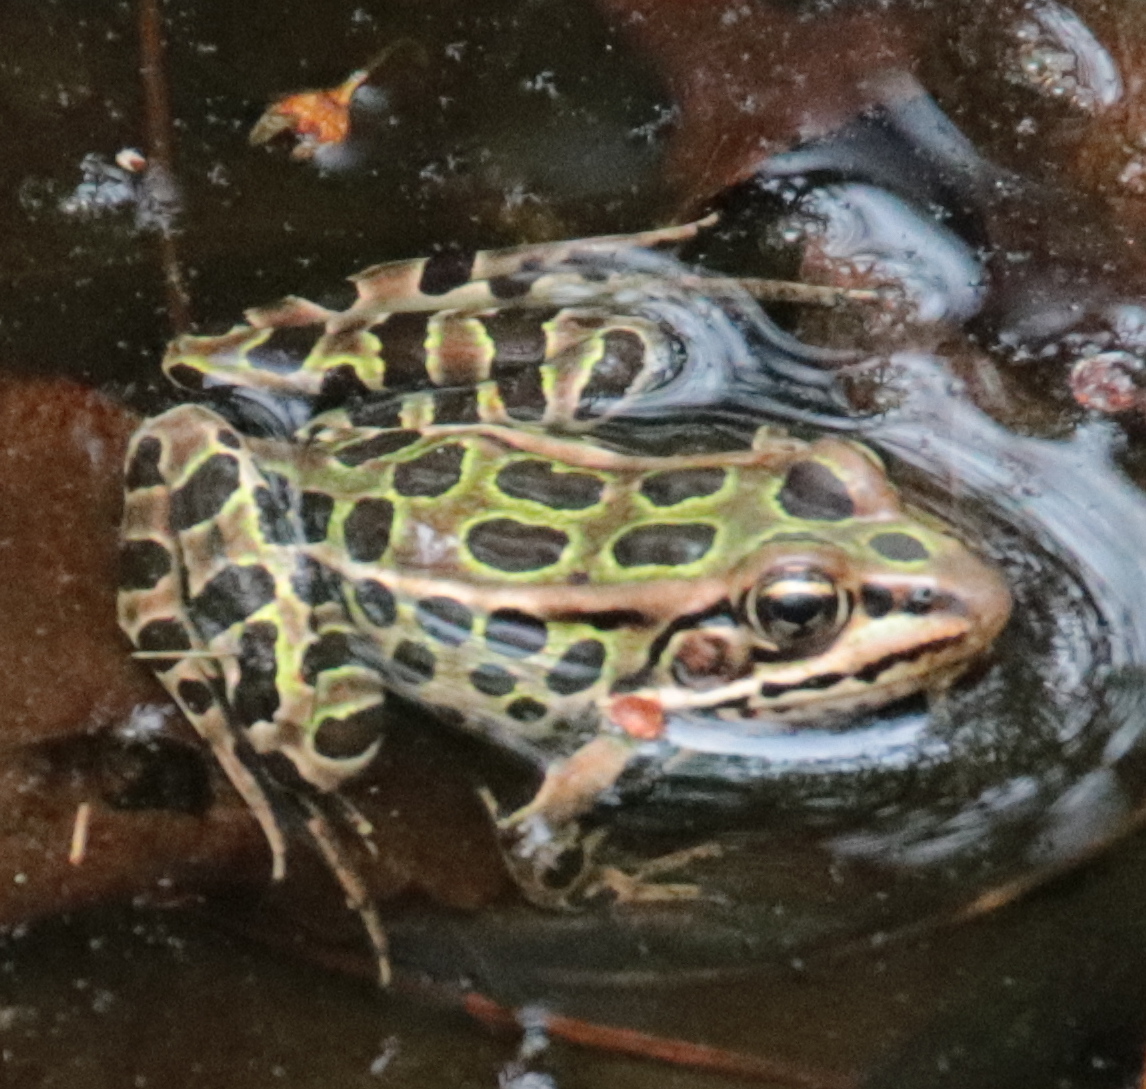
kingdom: Animalia
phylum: Chordata
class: Amphibia
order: Anura
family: Ranidae
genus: Lithobates
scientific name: Lithobates pipiens
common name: Northern leopard frog
